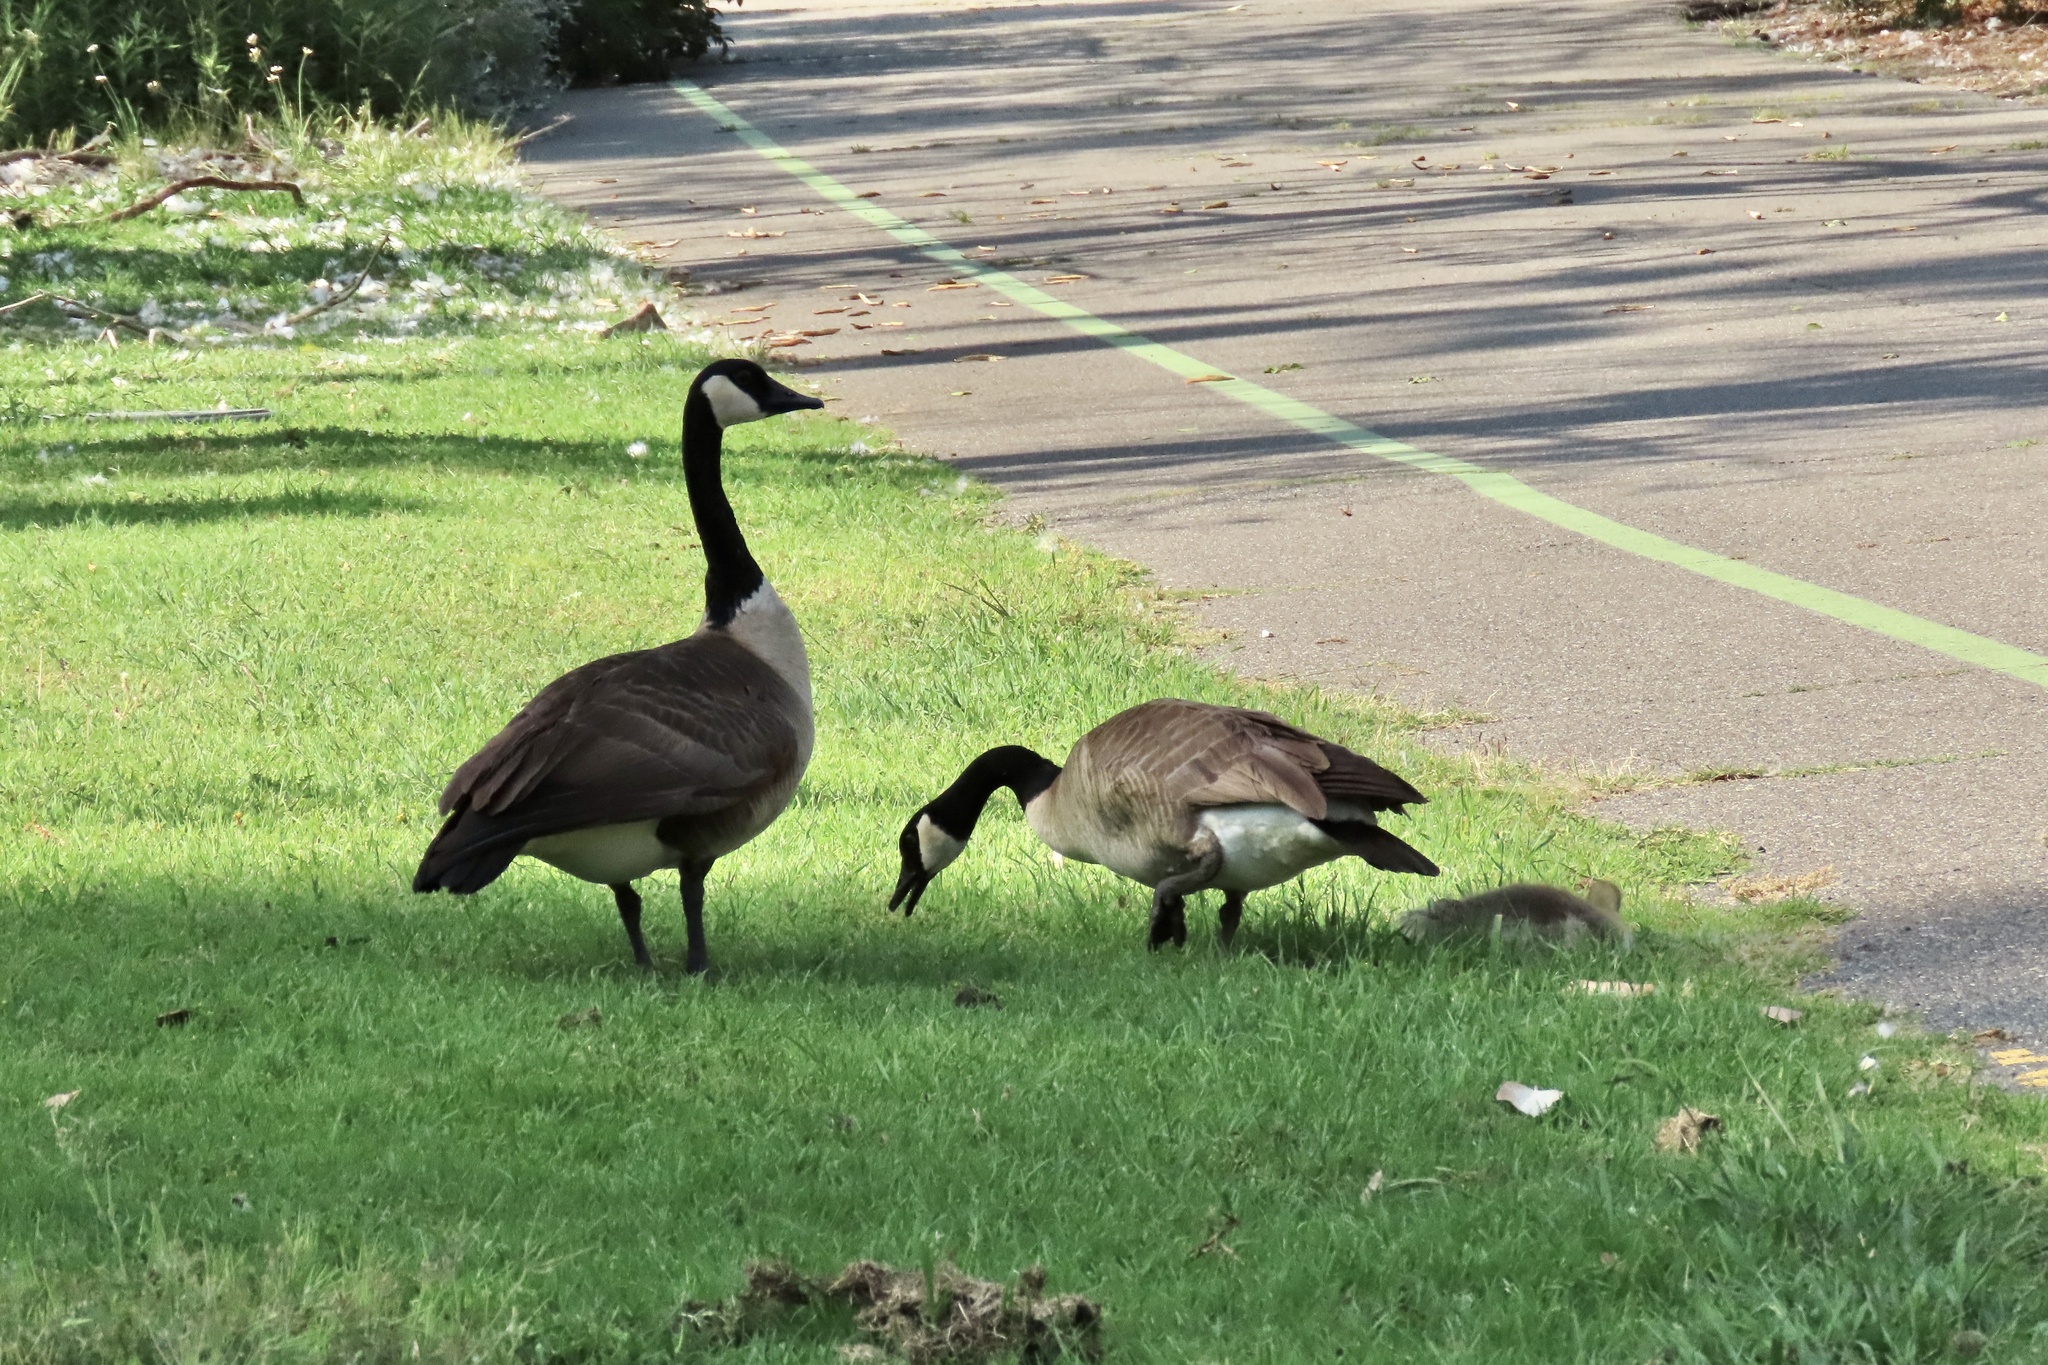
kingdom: Animalia
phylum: Chordata
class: Aves
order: Anseriformes
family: Anatidae
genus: Branta
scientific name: Branta canadensis
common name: Canada goose
